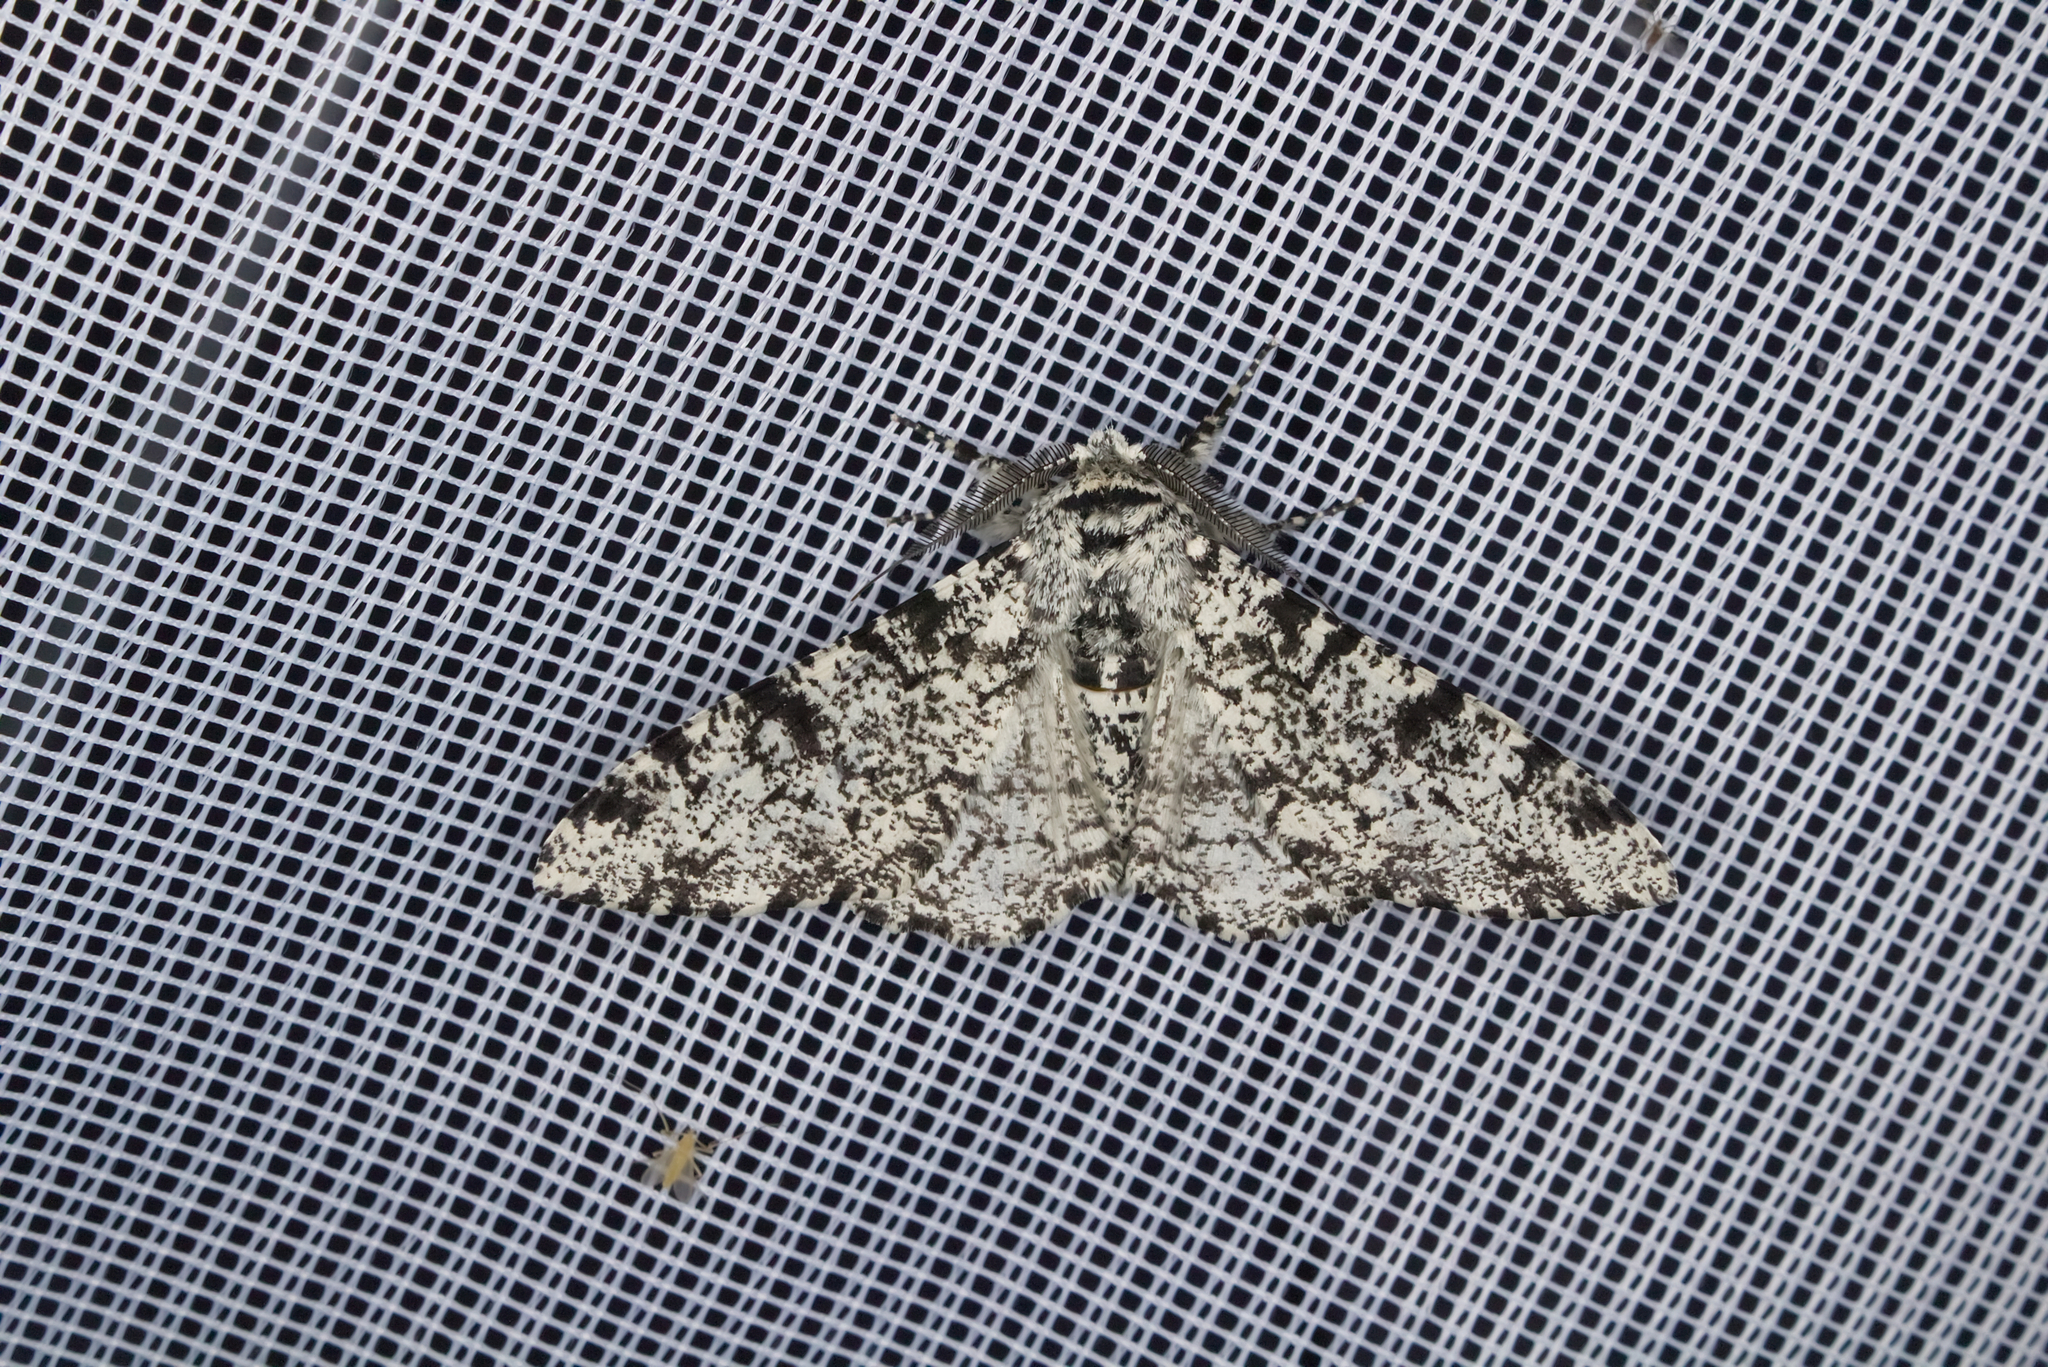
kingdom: Animalia
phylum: Arthropoda
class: Insecta
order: Lepidoptera
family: Geometridae
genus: Biston
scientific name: Biston betularia
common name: Peppered moth
